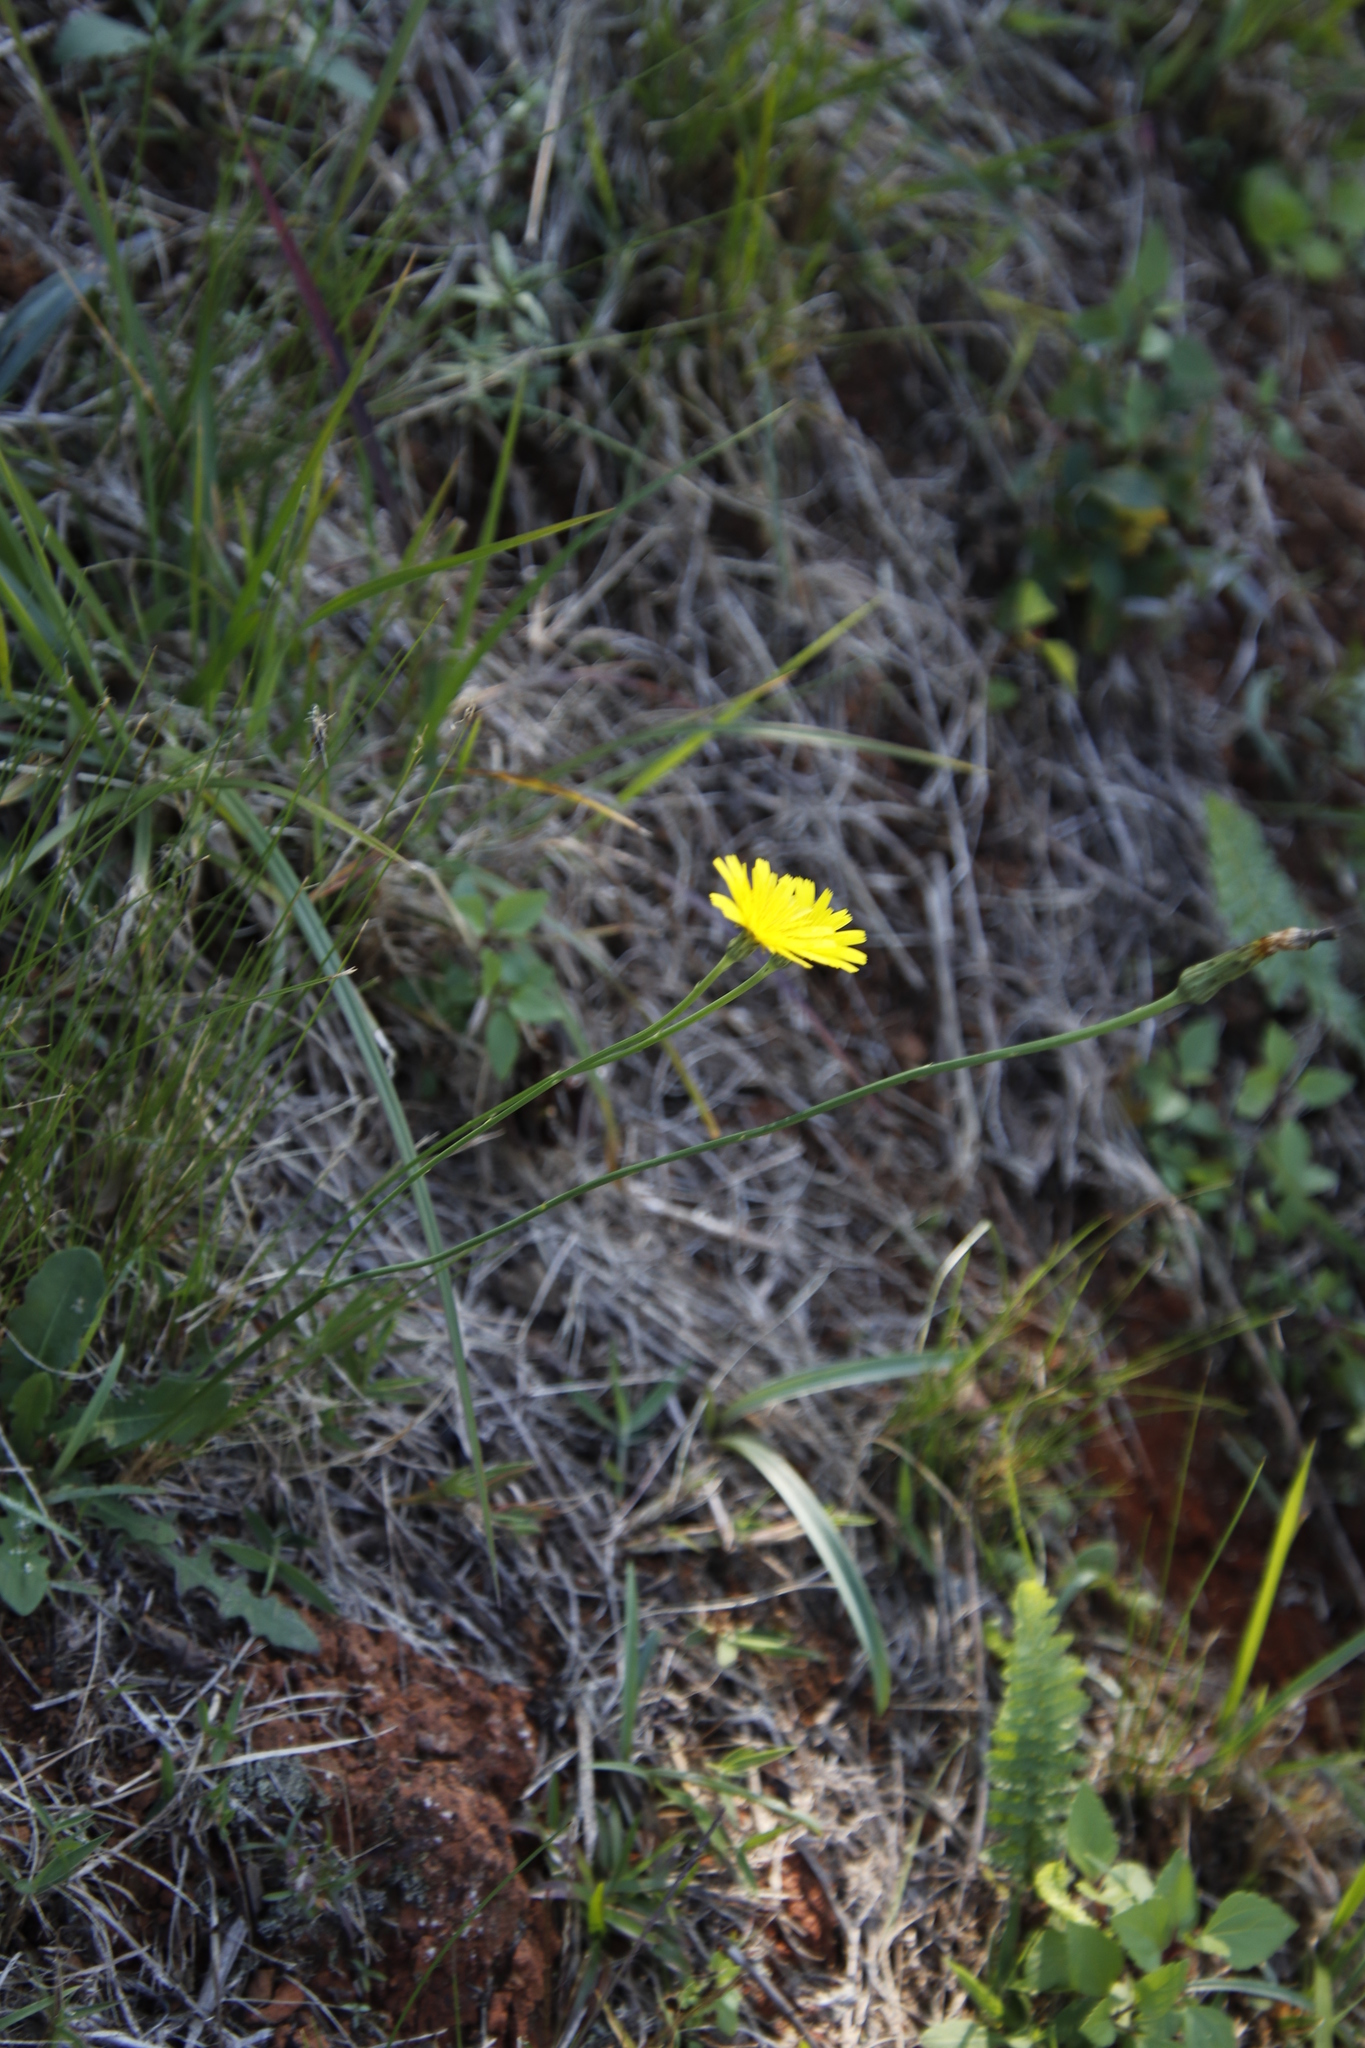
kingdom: Plantae
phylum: Tracheophyta
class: Magnoliopsida
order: Asterales
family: Asteraceae
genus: Hypochaeris
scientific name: Hypochaeris radicata
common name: Flatweed
